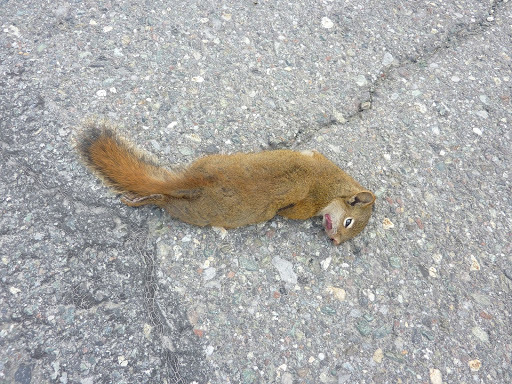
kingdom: Animalia
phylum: Chordata
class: Mammalia
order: Rodentia
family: Sciuridae
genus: Tamiasciurus
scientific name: Tamiasciurus hudsonicus
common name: Red squirrel
